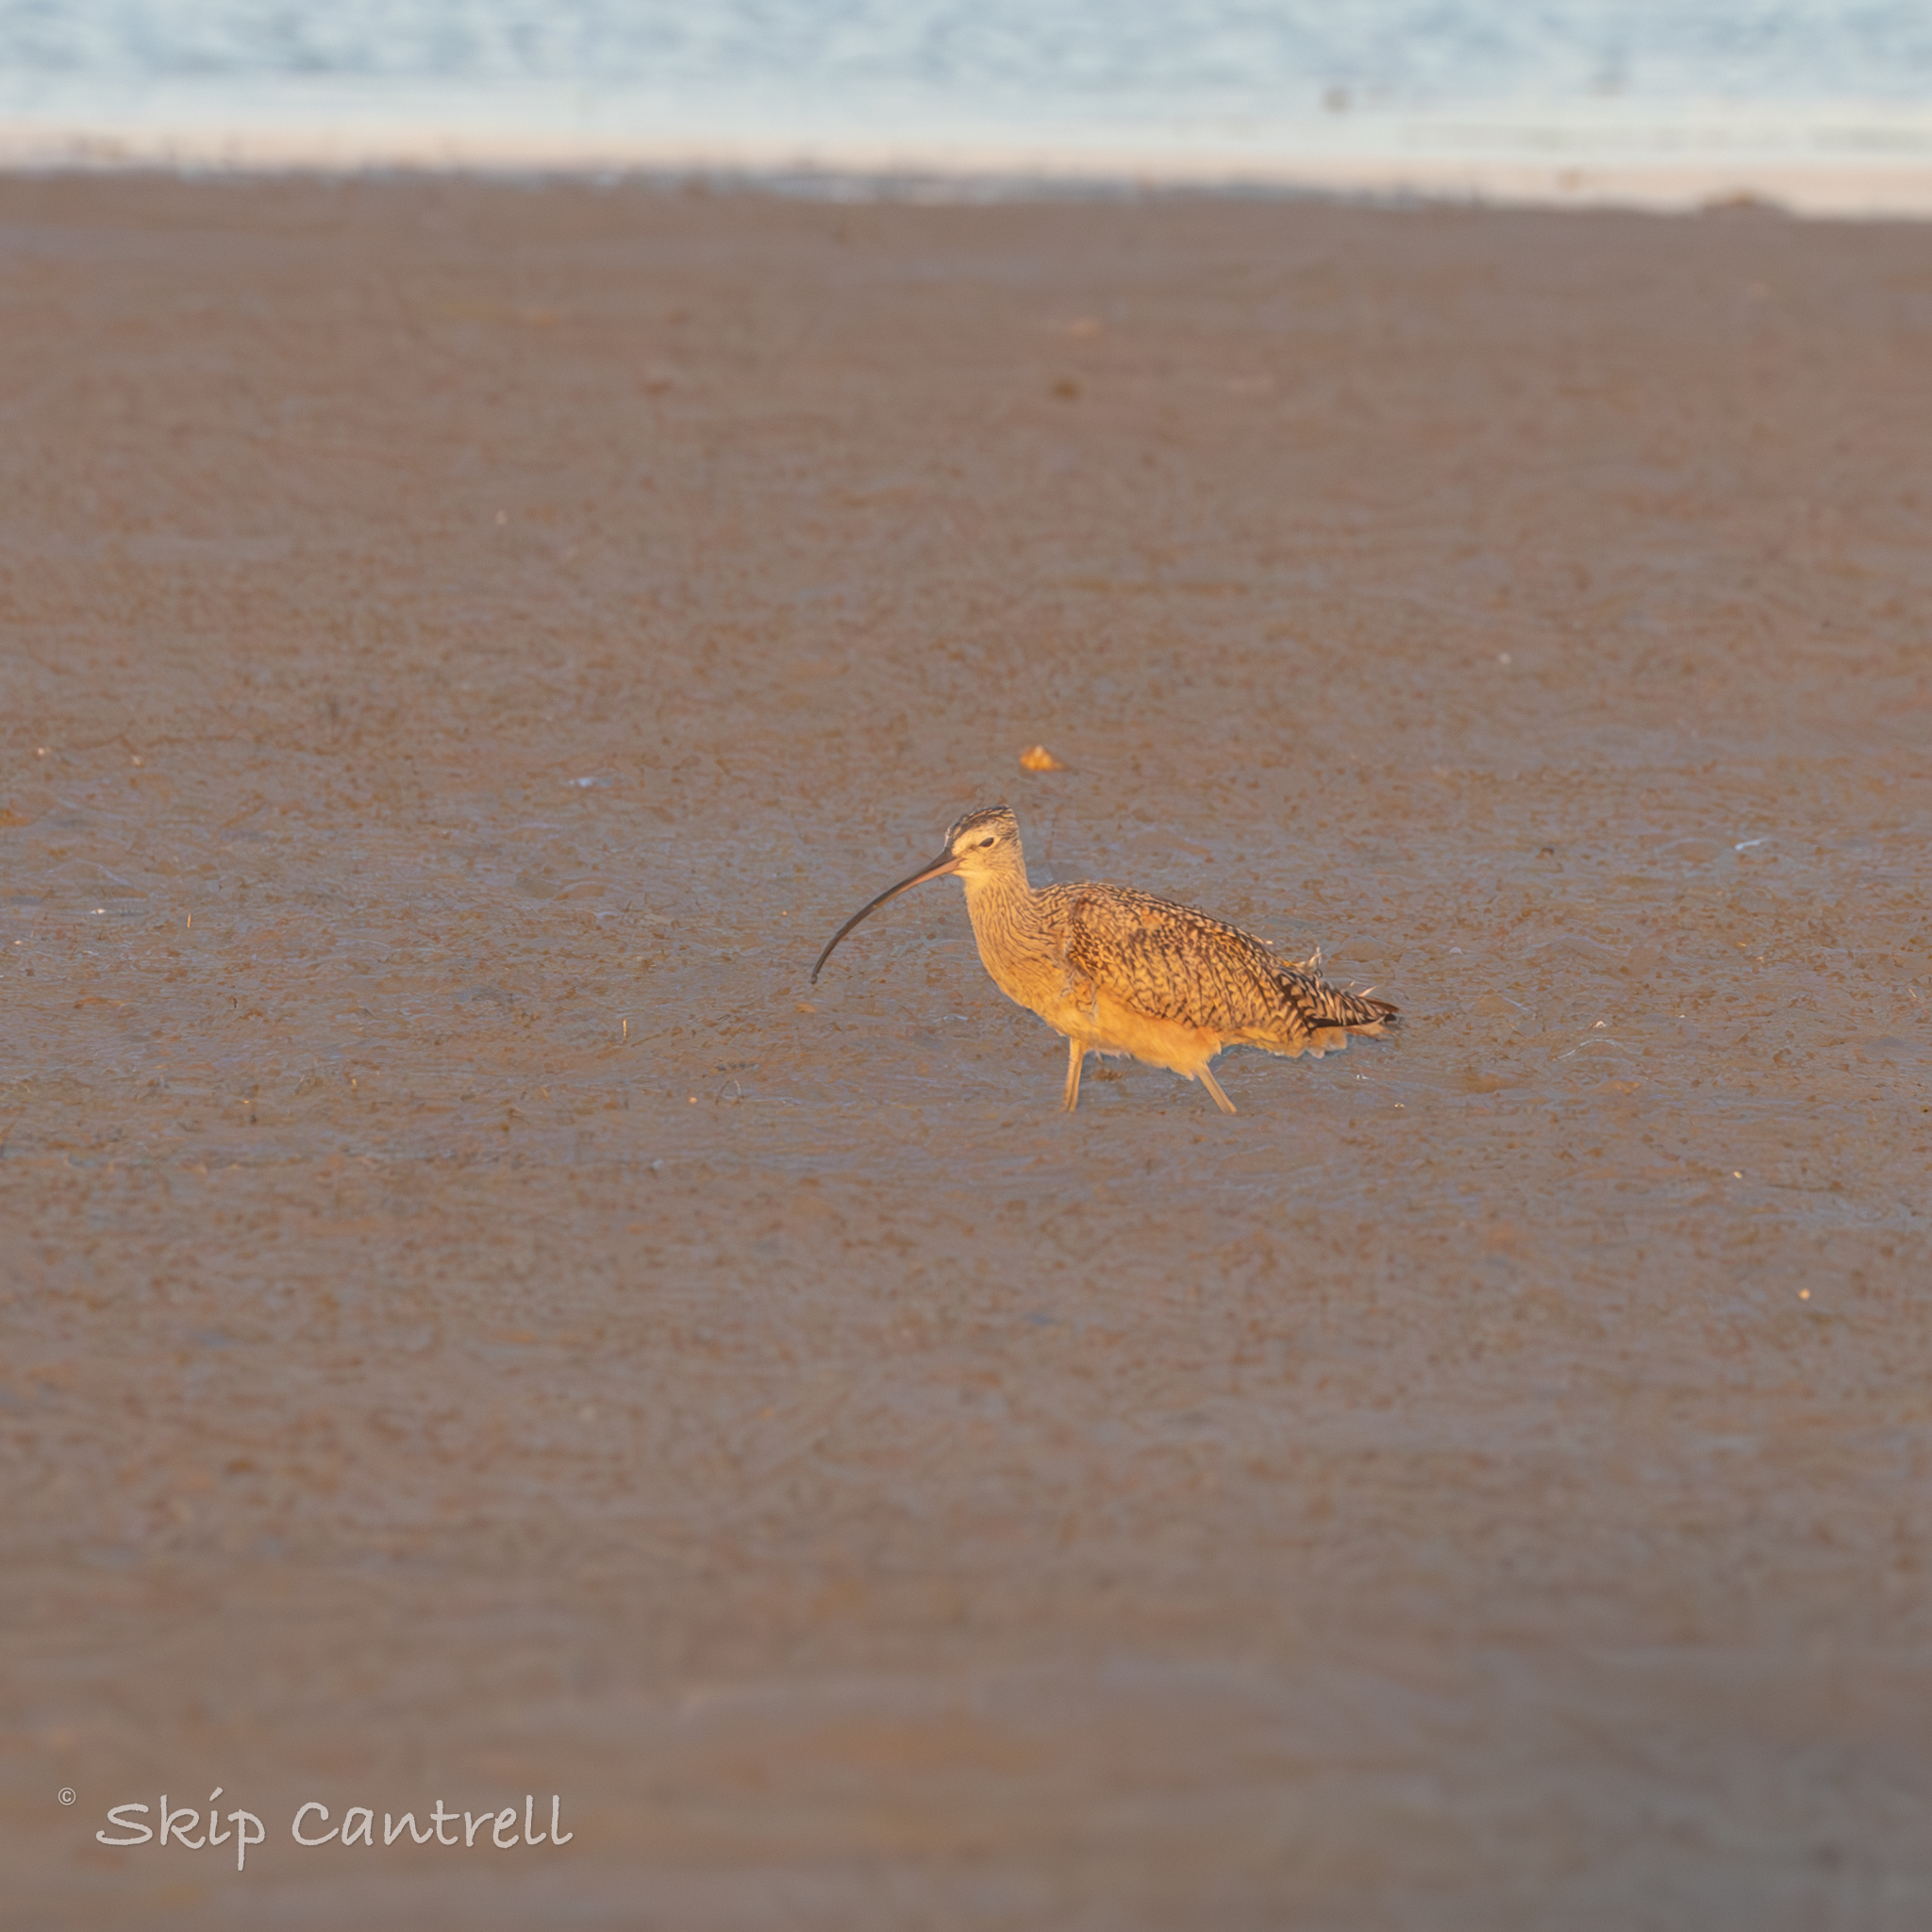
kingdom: Animalia
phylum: Chordata
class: Aves
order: Charadriiformes
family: Scolopacidae
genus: Numenius
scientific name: Numenius americanus
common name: Long-billed curlew
